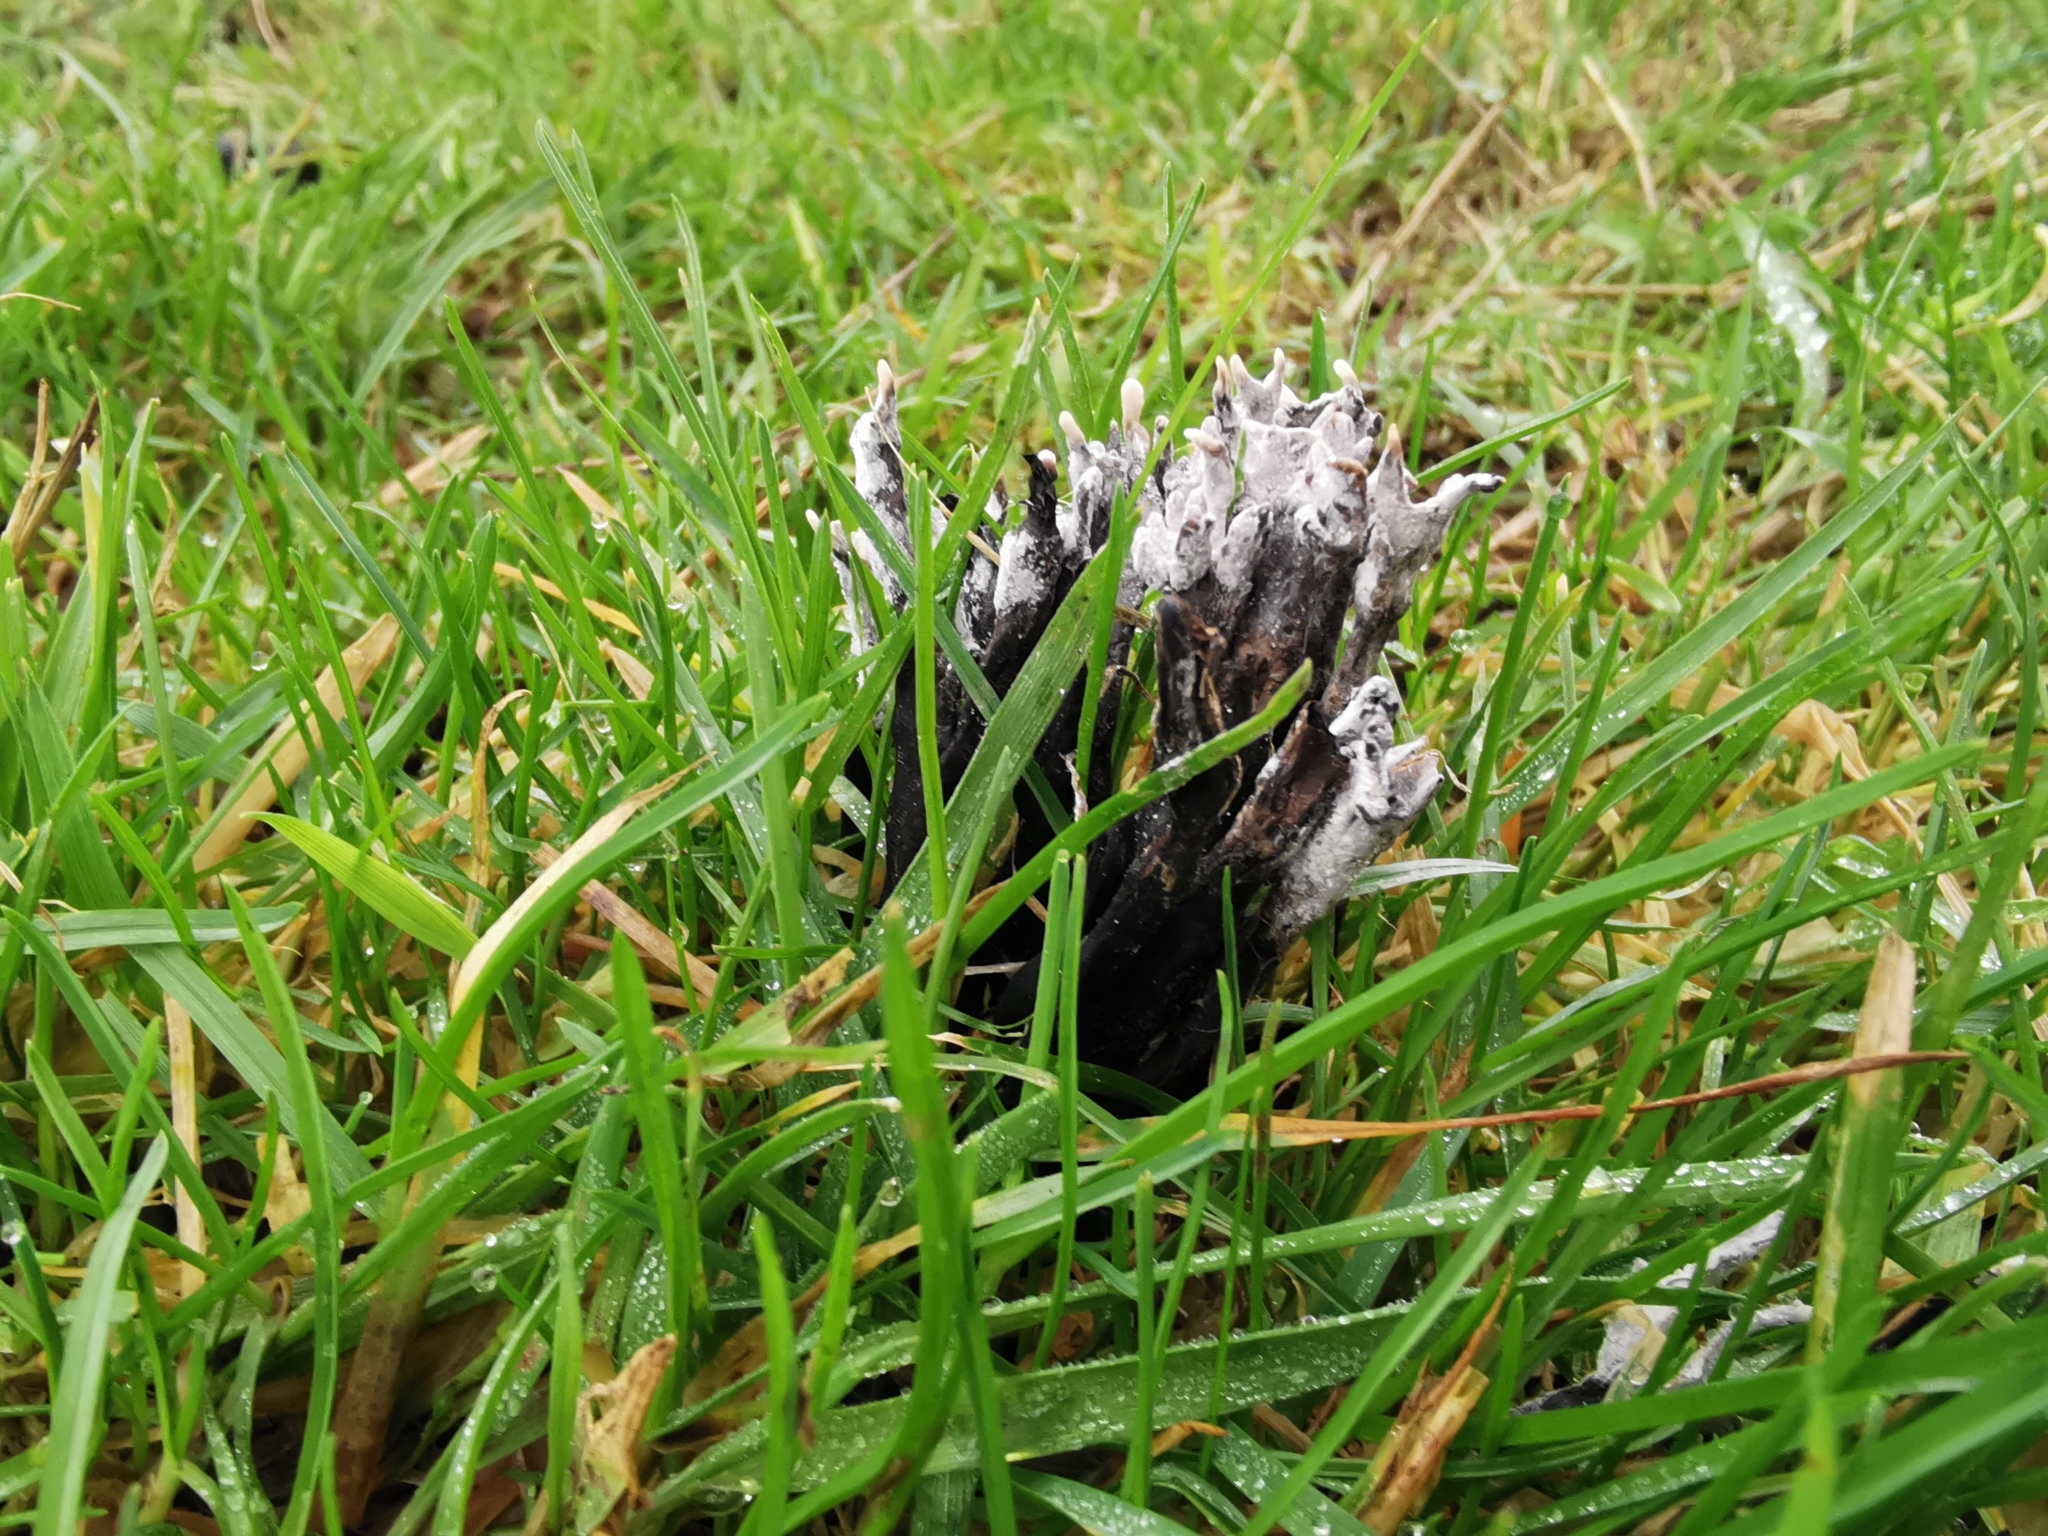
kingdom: Fungi
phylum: Ascomycota
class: Sordariomycetes
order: Xylariales
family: Xylariaceae
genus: Xylaria
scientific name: Xylaria hypoxylon
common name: Candle-snuff fungus
